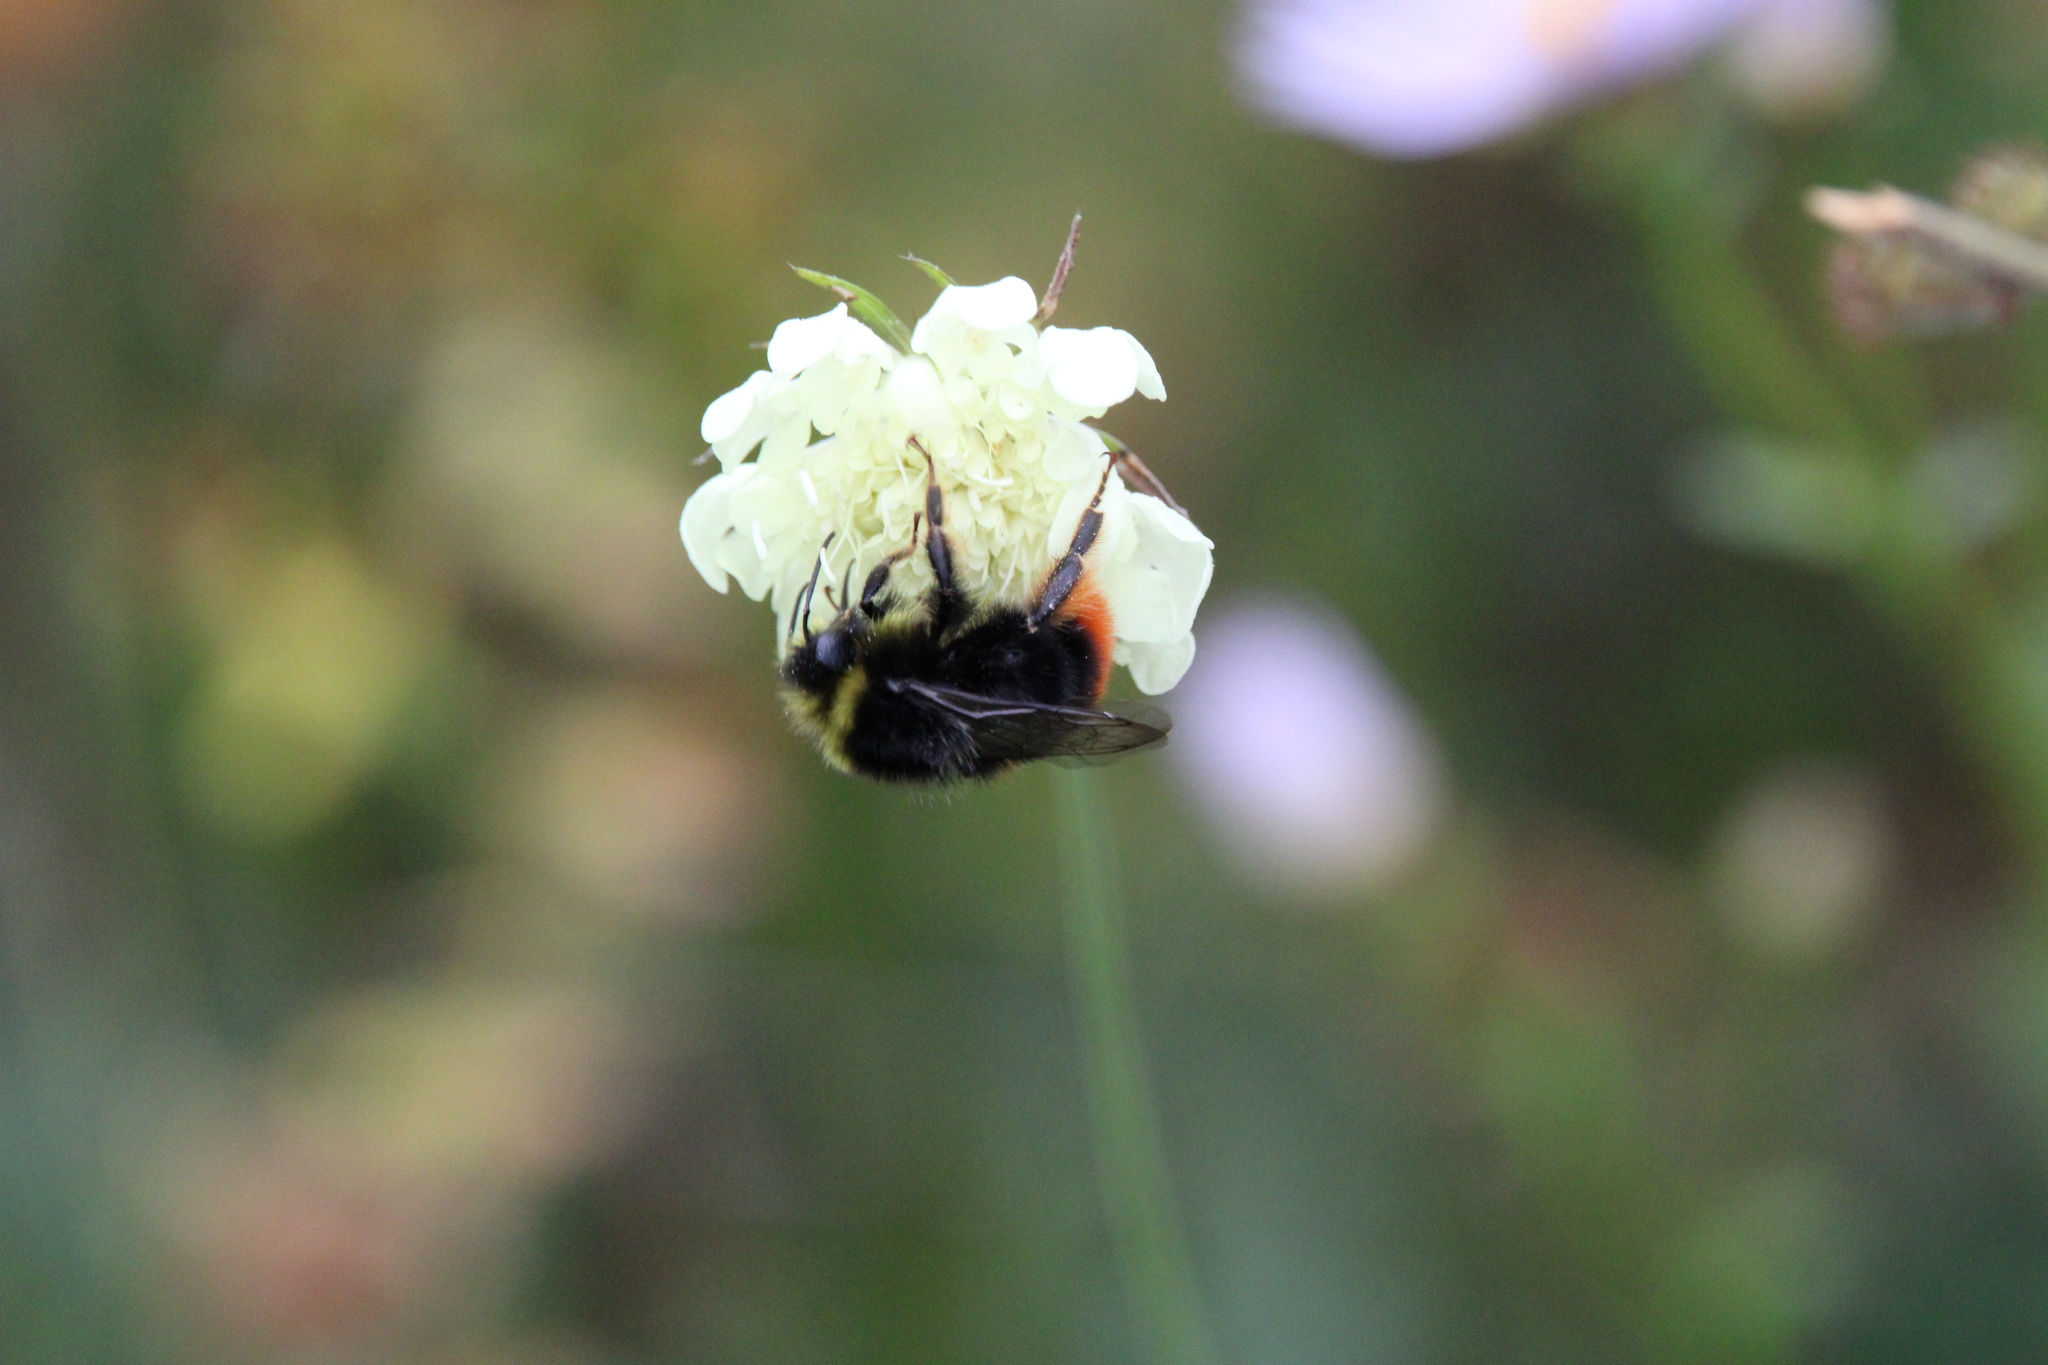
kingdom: Animalia
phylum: Arthropoda
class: Insecta
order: Hymenoptera
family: Apidae
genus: Bombus
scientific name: Bombus lapidarius
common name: Large red-tailed humble-bee
